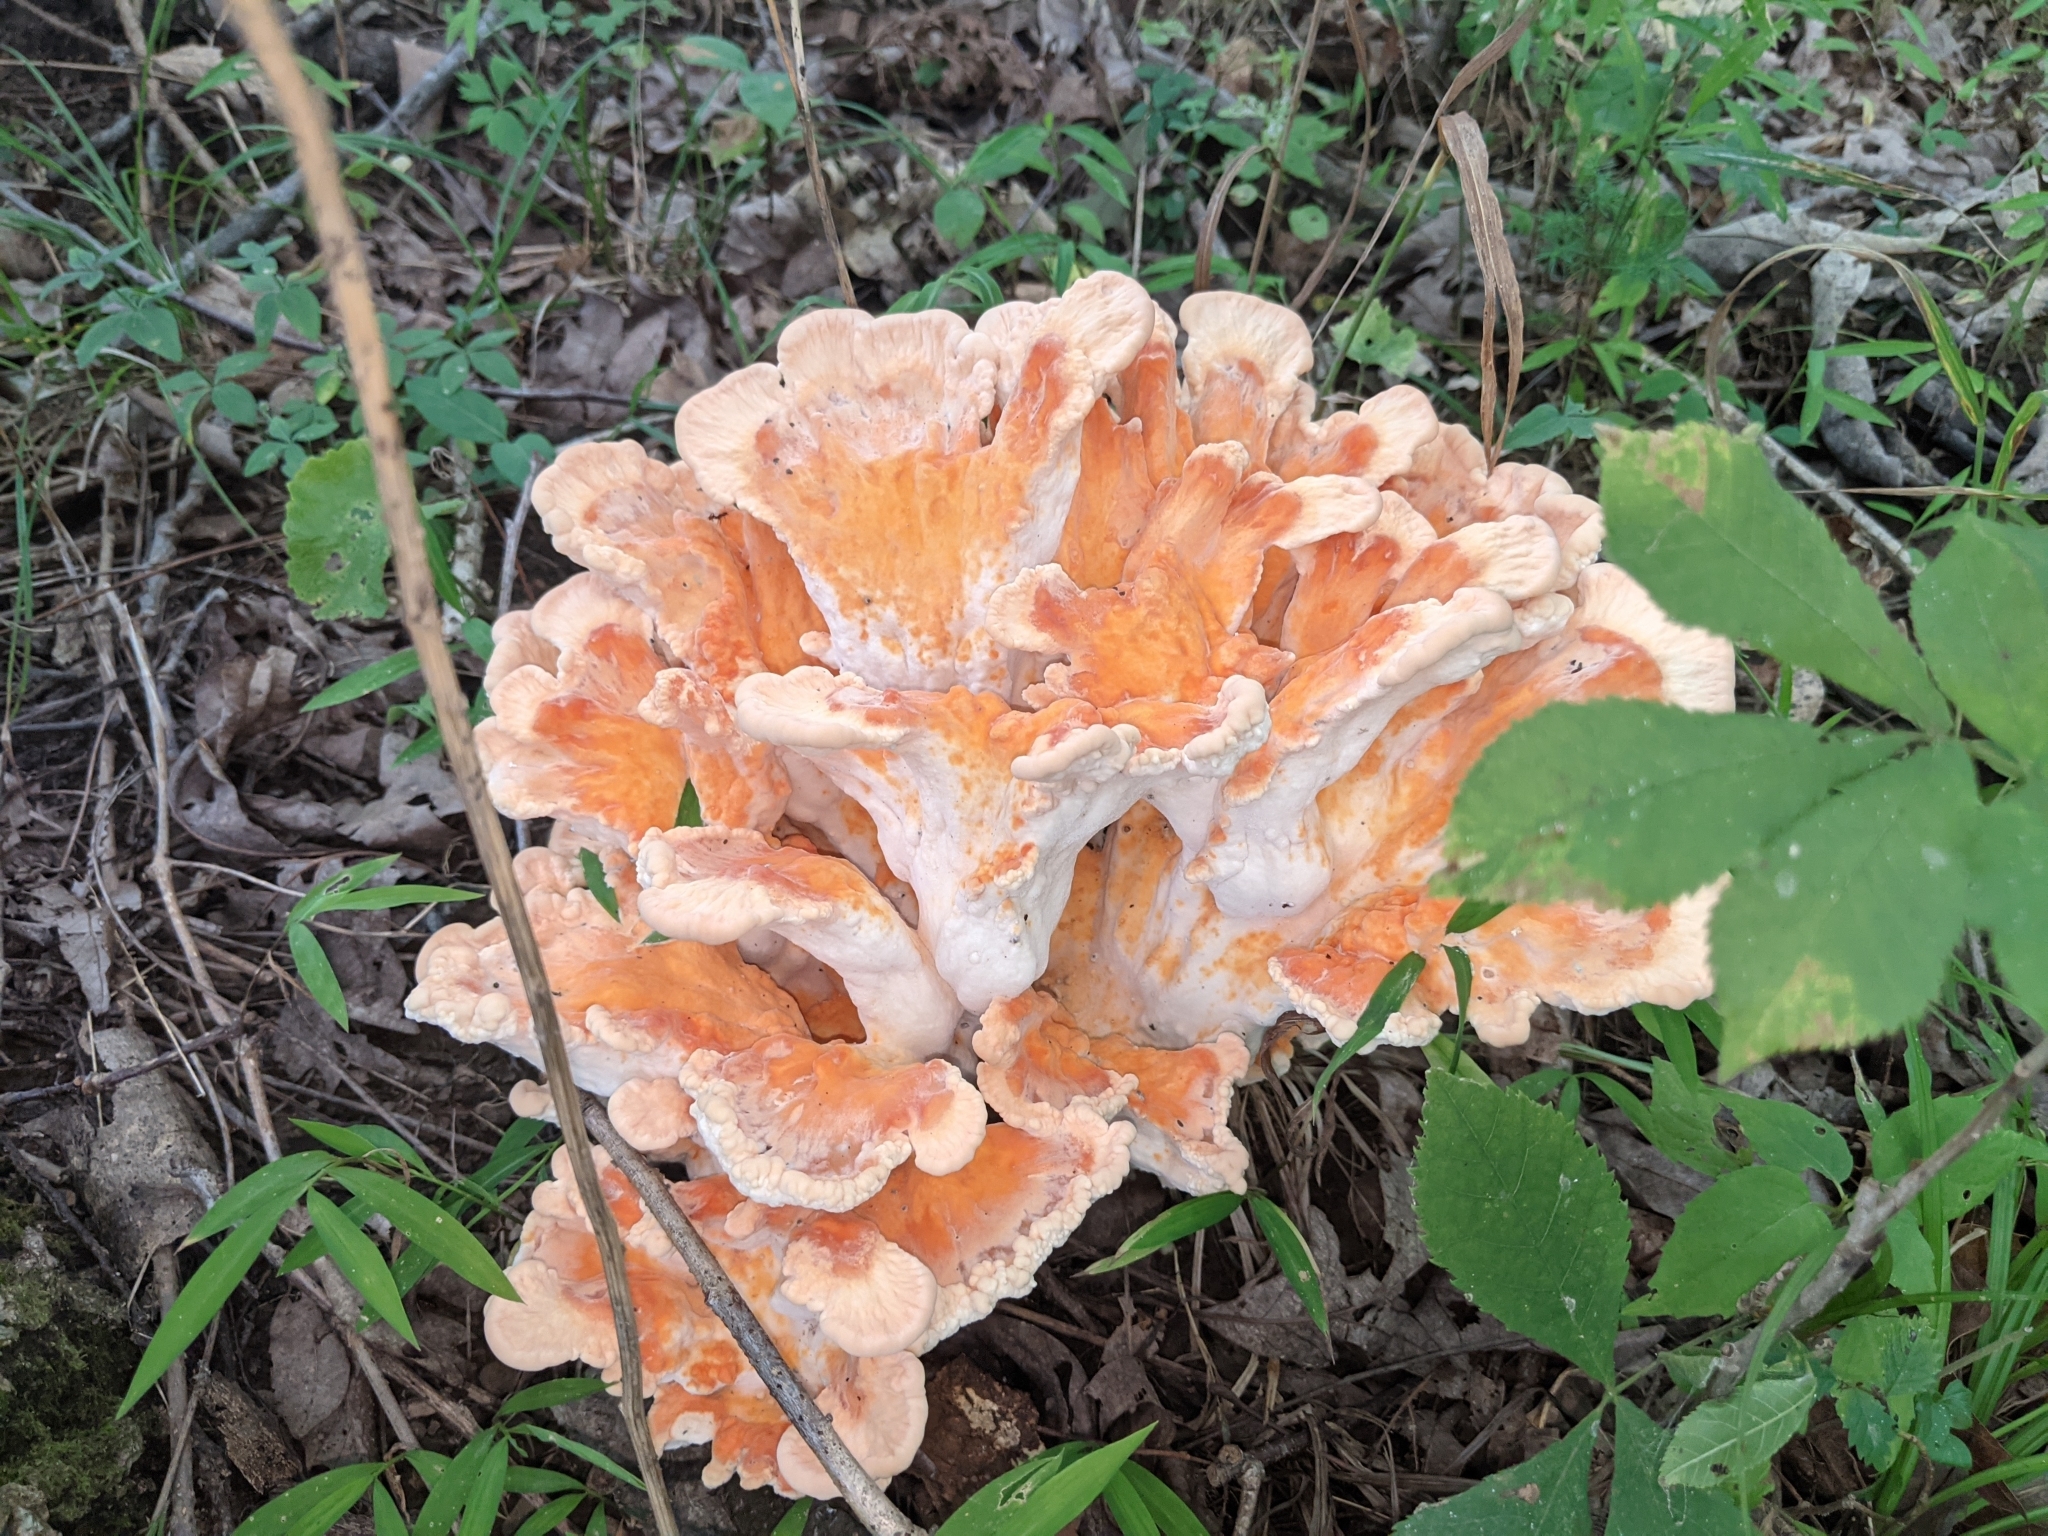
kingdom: Fungi
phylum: Basidiomycota
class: Agaricomycetes
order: Polyporales
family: Laetiporaceae
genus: Laetiporus
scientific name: Laetiporus sulphureus
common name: Chicken of the woods
